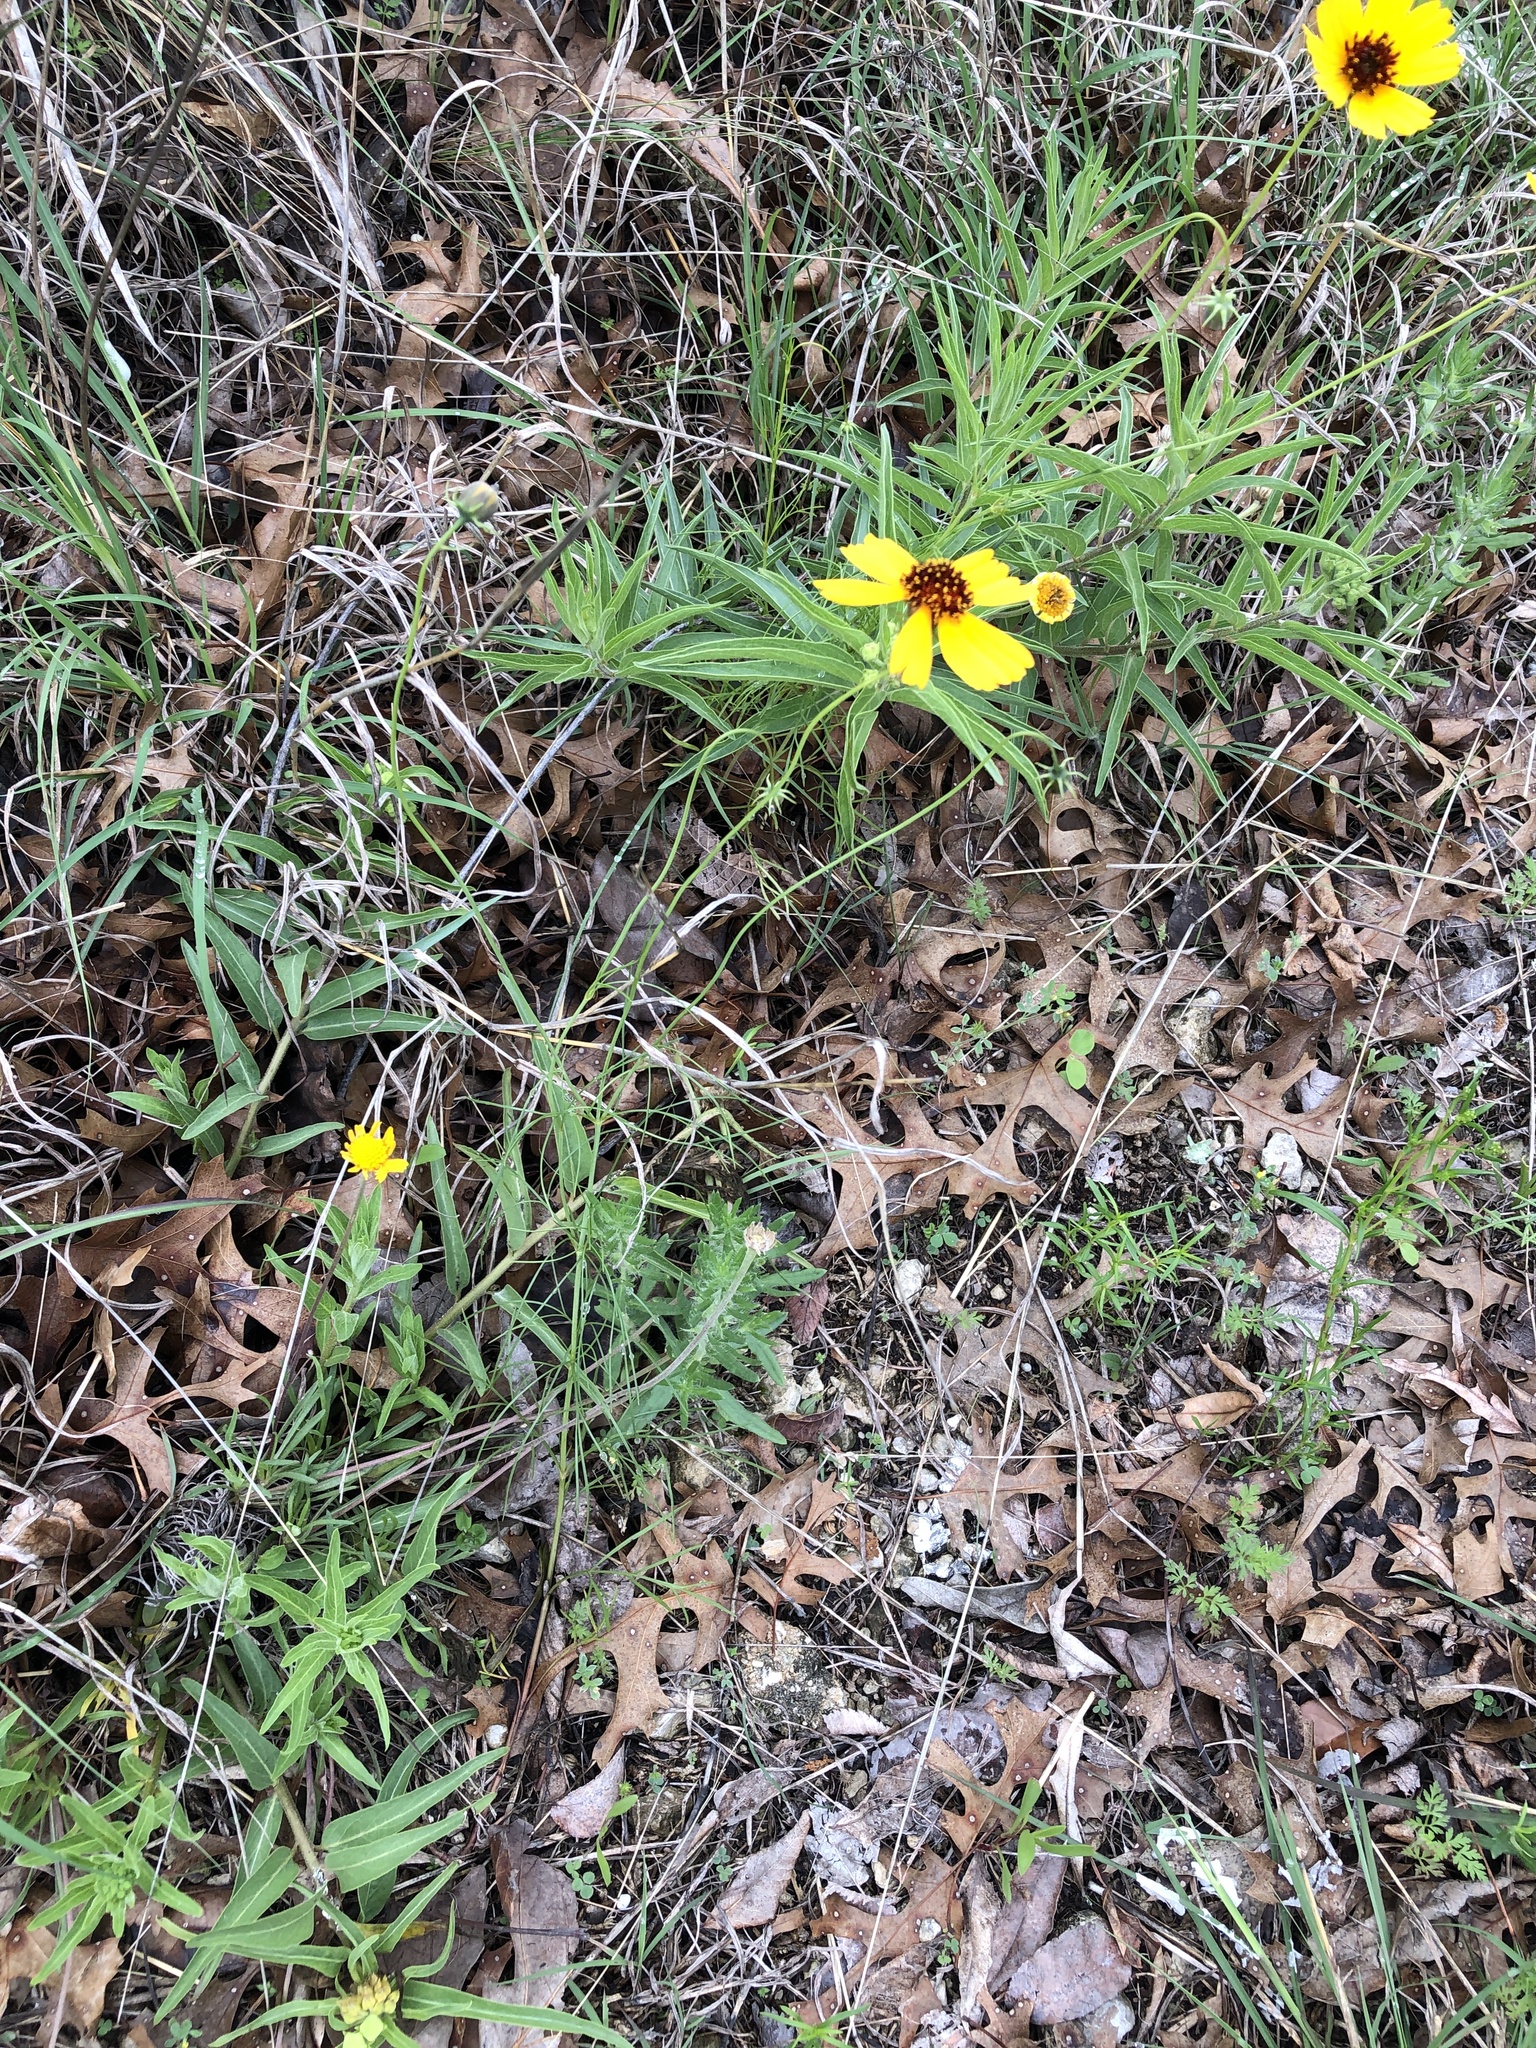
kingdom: Plantae
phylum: Tracheophyta
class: Magnoliopsida
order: Asterales
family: Asteraceae
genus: Thelesperma
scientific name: Thelesperma filifolium
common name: Stiff greenthread
